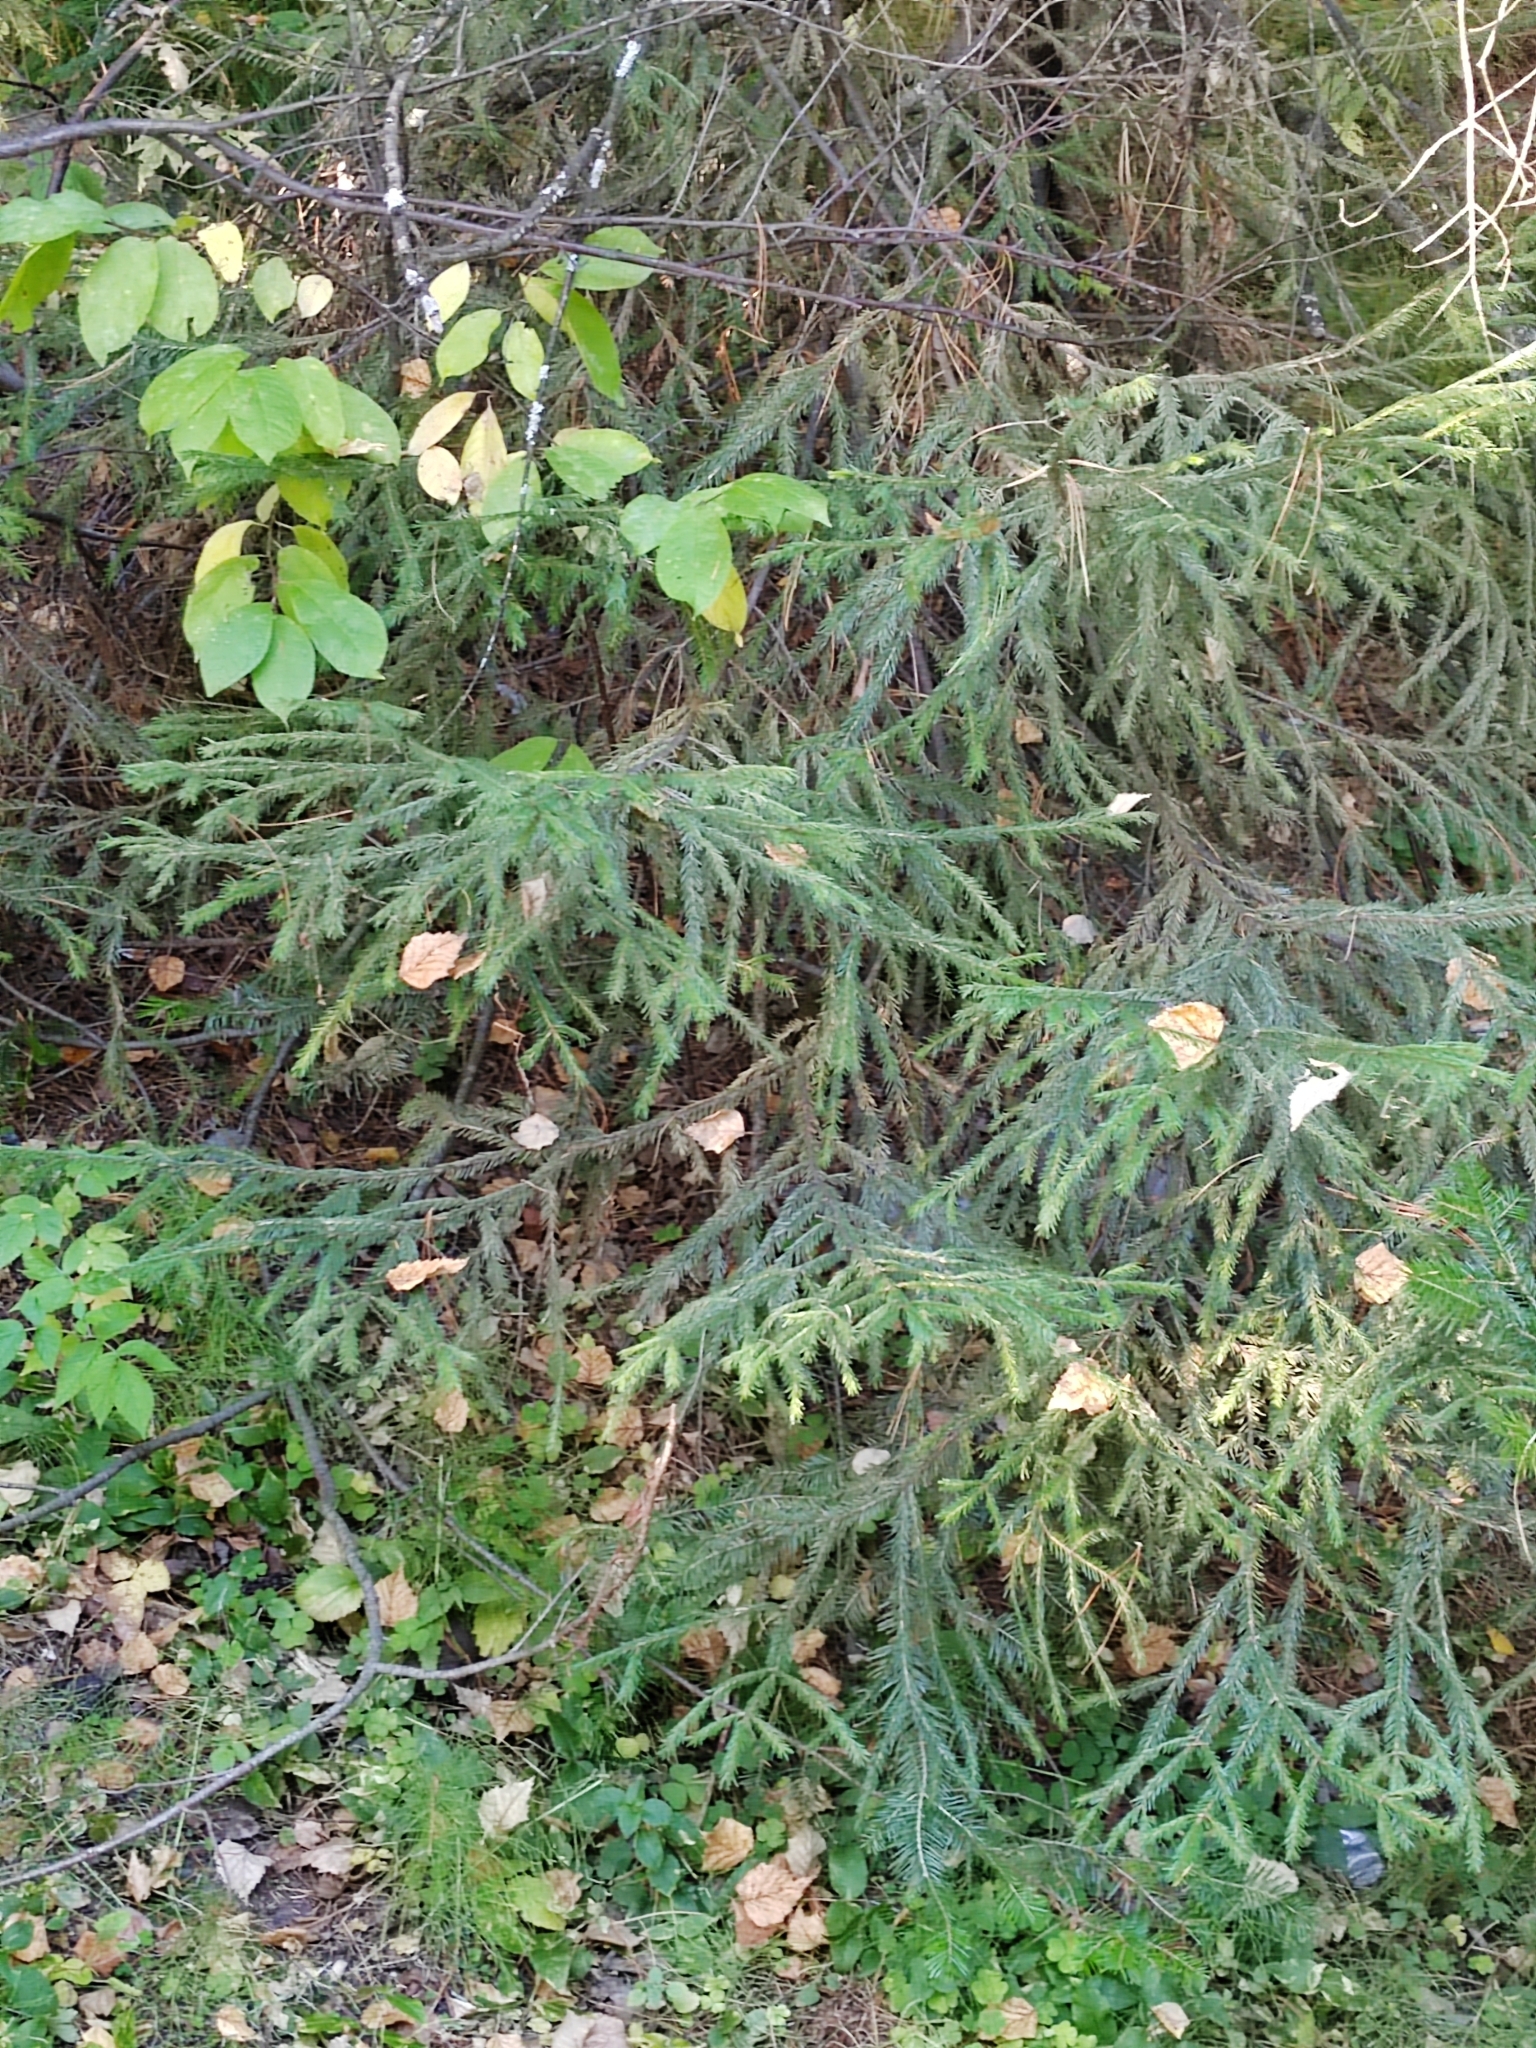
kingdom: Plantae
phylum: Tracheophyta
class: Pinopsida
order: Pinales
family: Pinaceae
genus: Picea
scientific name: Picea obovata
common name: Siberian spruce
